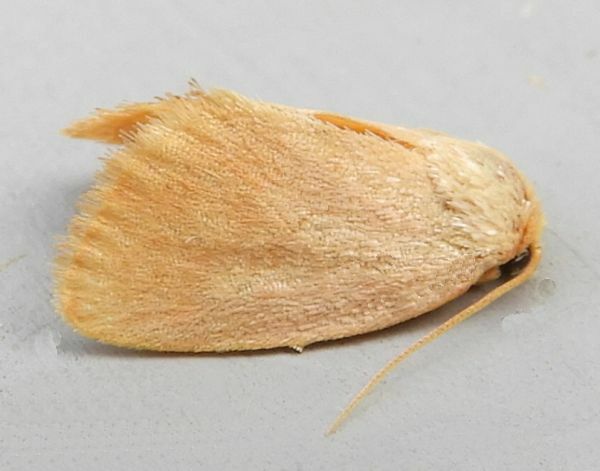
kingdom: Animalia
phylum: Arthropoda
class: Insecta
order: Lepidoptera
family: Limacodidae
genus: Tortricidia
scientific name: Tortricidia pallida
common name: Red-crossed button slug moth
